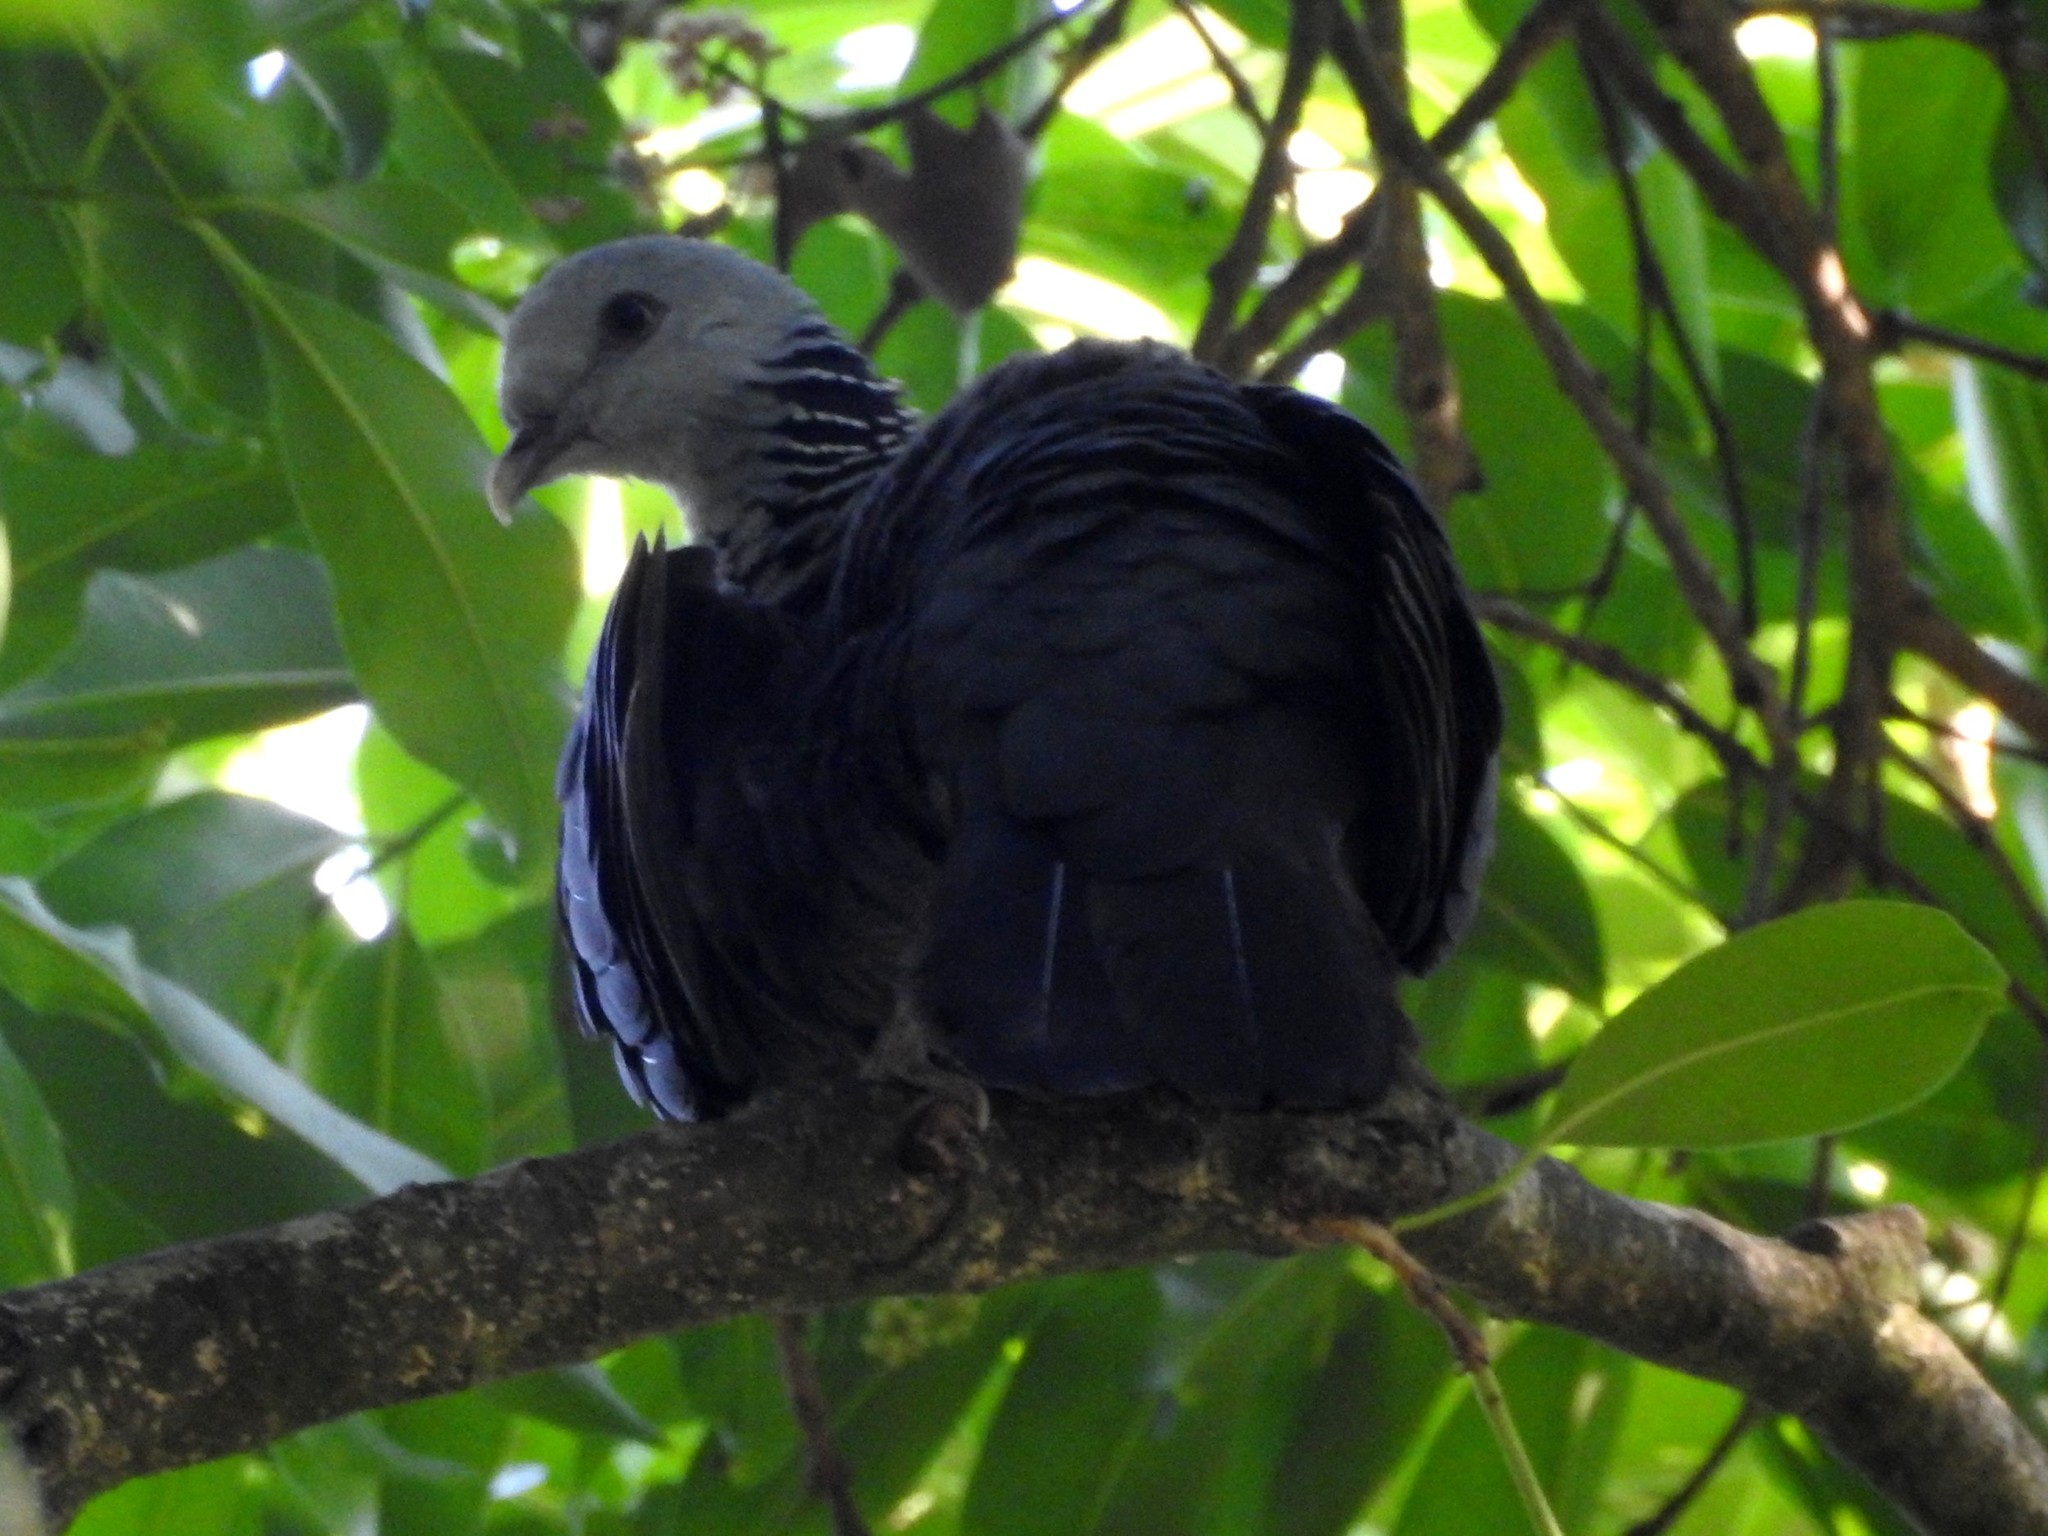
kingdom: Animalia
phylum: Chordata
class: Aves
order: Columbiformes
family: Columbidae
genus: Columba
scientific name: Columba elphinstonii
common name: Nilgiri wood pigeon
